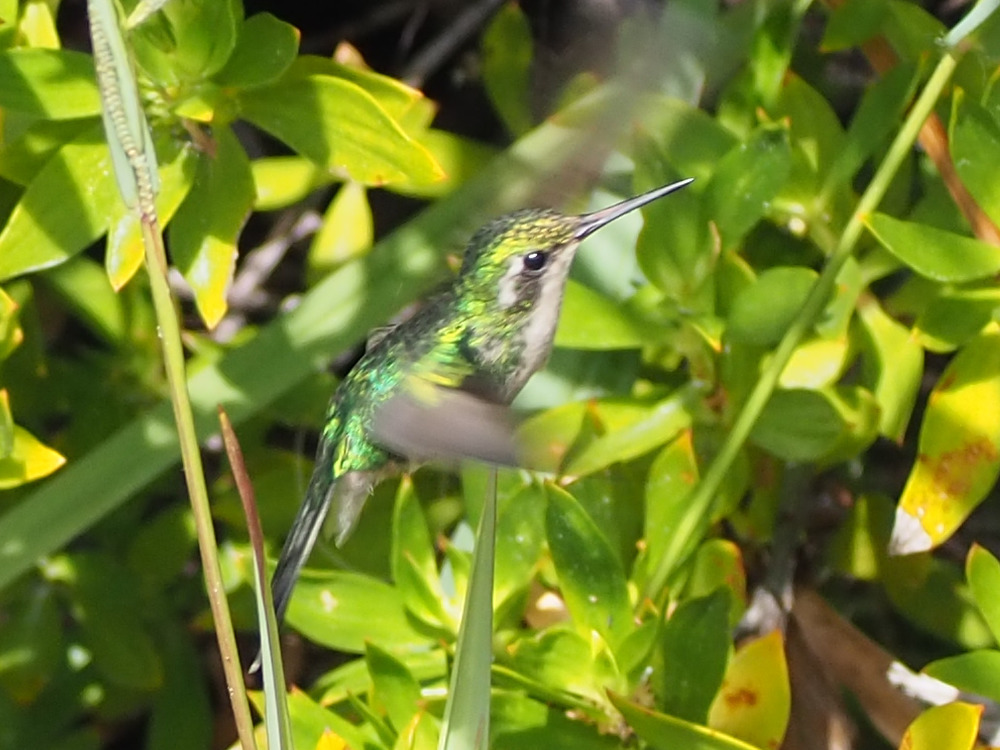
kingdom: Animalia
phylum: Chordata
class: Aves
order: Apodiformes
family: Trochilidae
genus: Cynanthus
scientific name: Cynanthus canivetii
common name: Canivet's emerald
